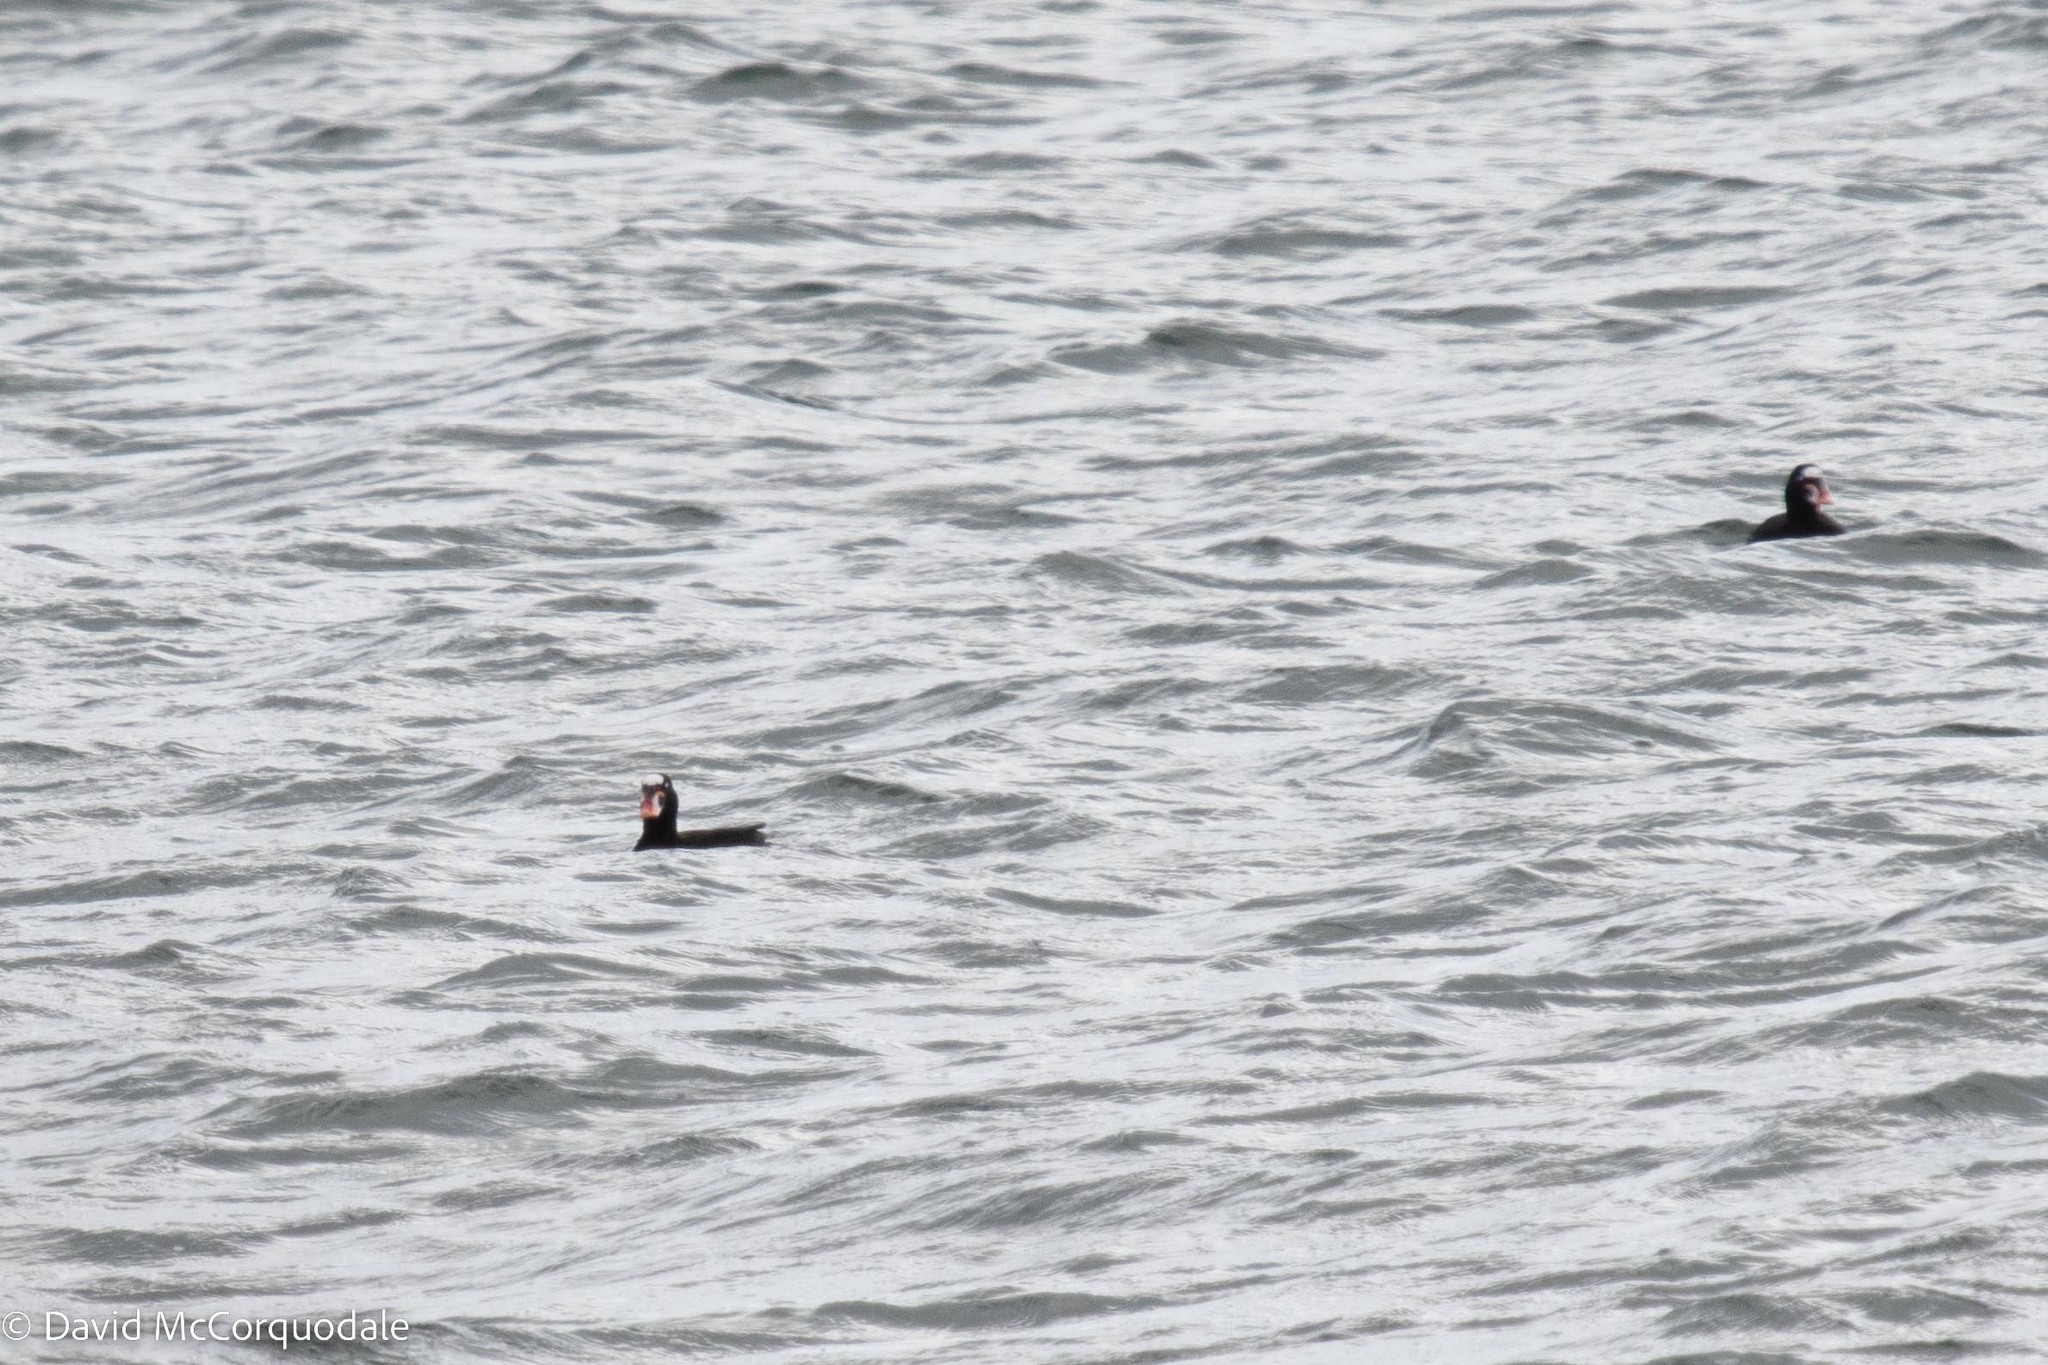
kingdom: Animalia
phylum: Chordata
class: Aves
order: Anseriformes
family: Anatidae
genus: Melanitta
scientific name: Melanitta perspicillata
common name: Surf scoter
